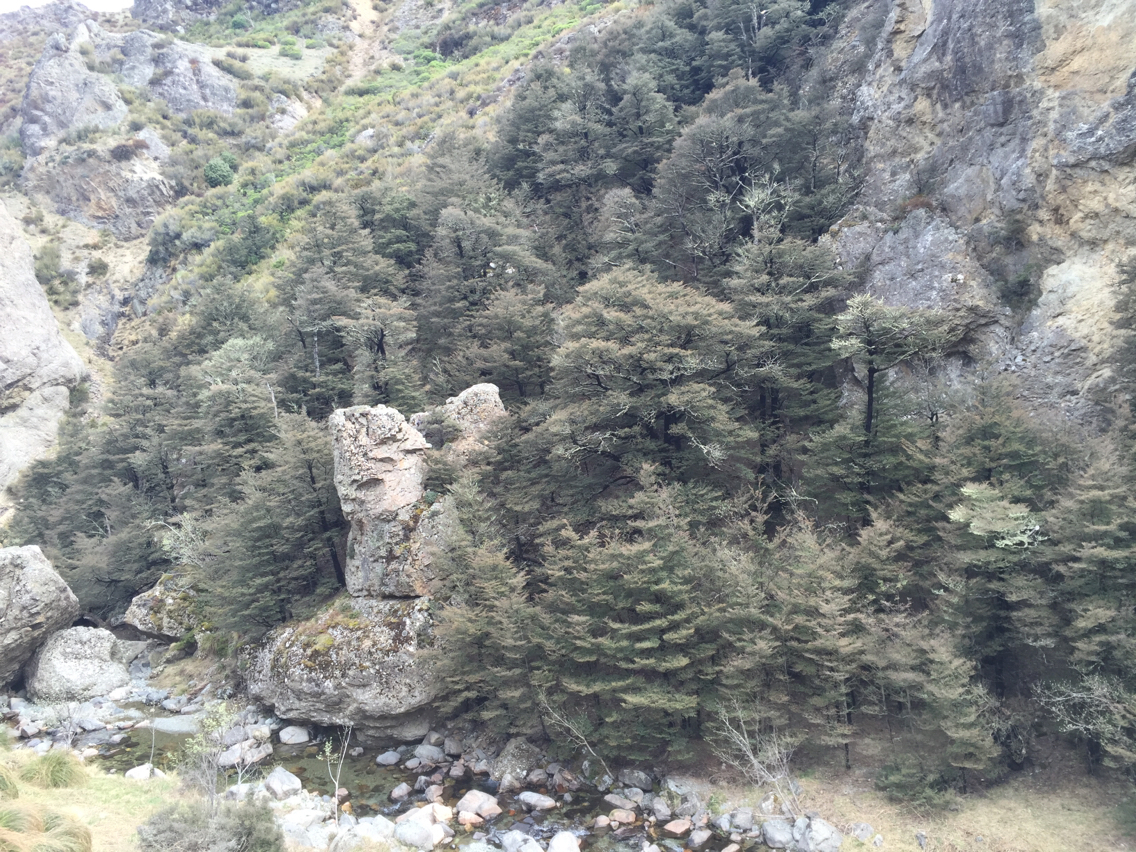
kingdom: Plantae
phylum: Tracheophyta
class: Magnoliopsida
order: Fagales
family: Nothofagaceae
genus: Nothofagus
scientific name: Nothofagus cliffortioides
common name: Mountain beech
